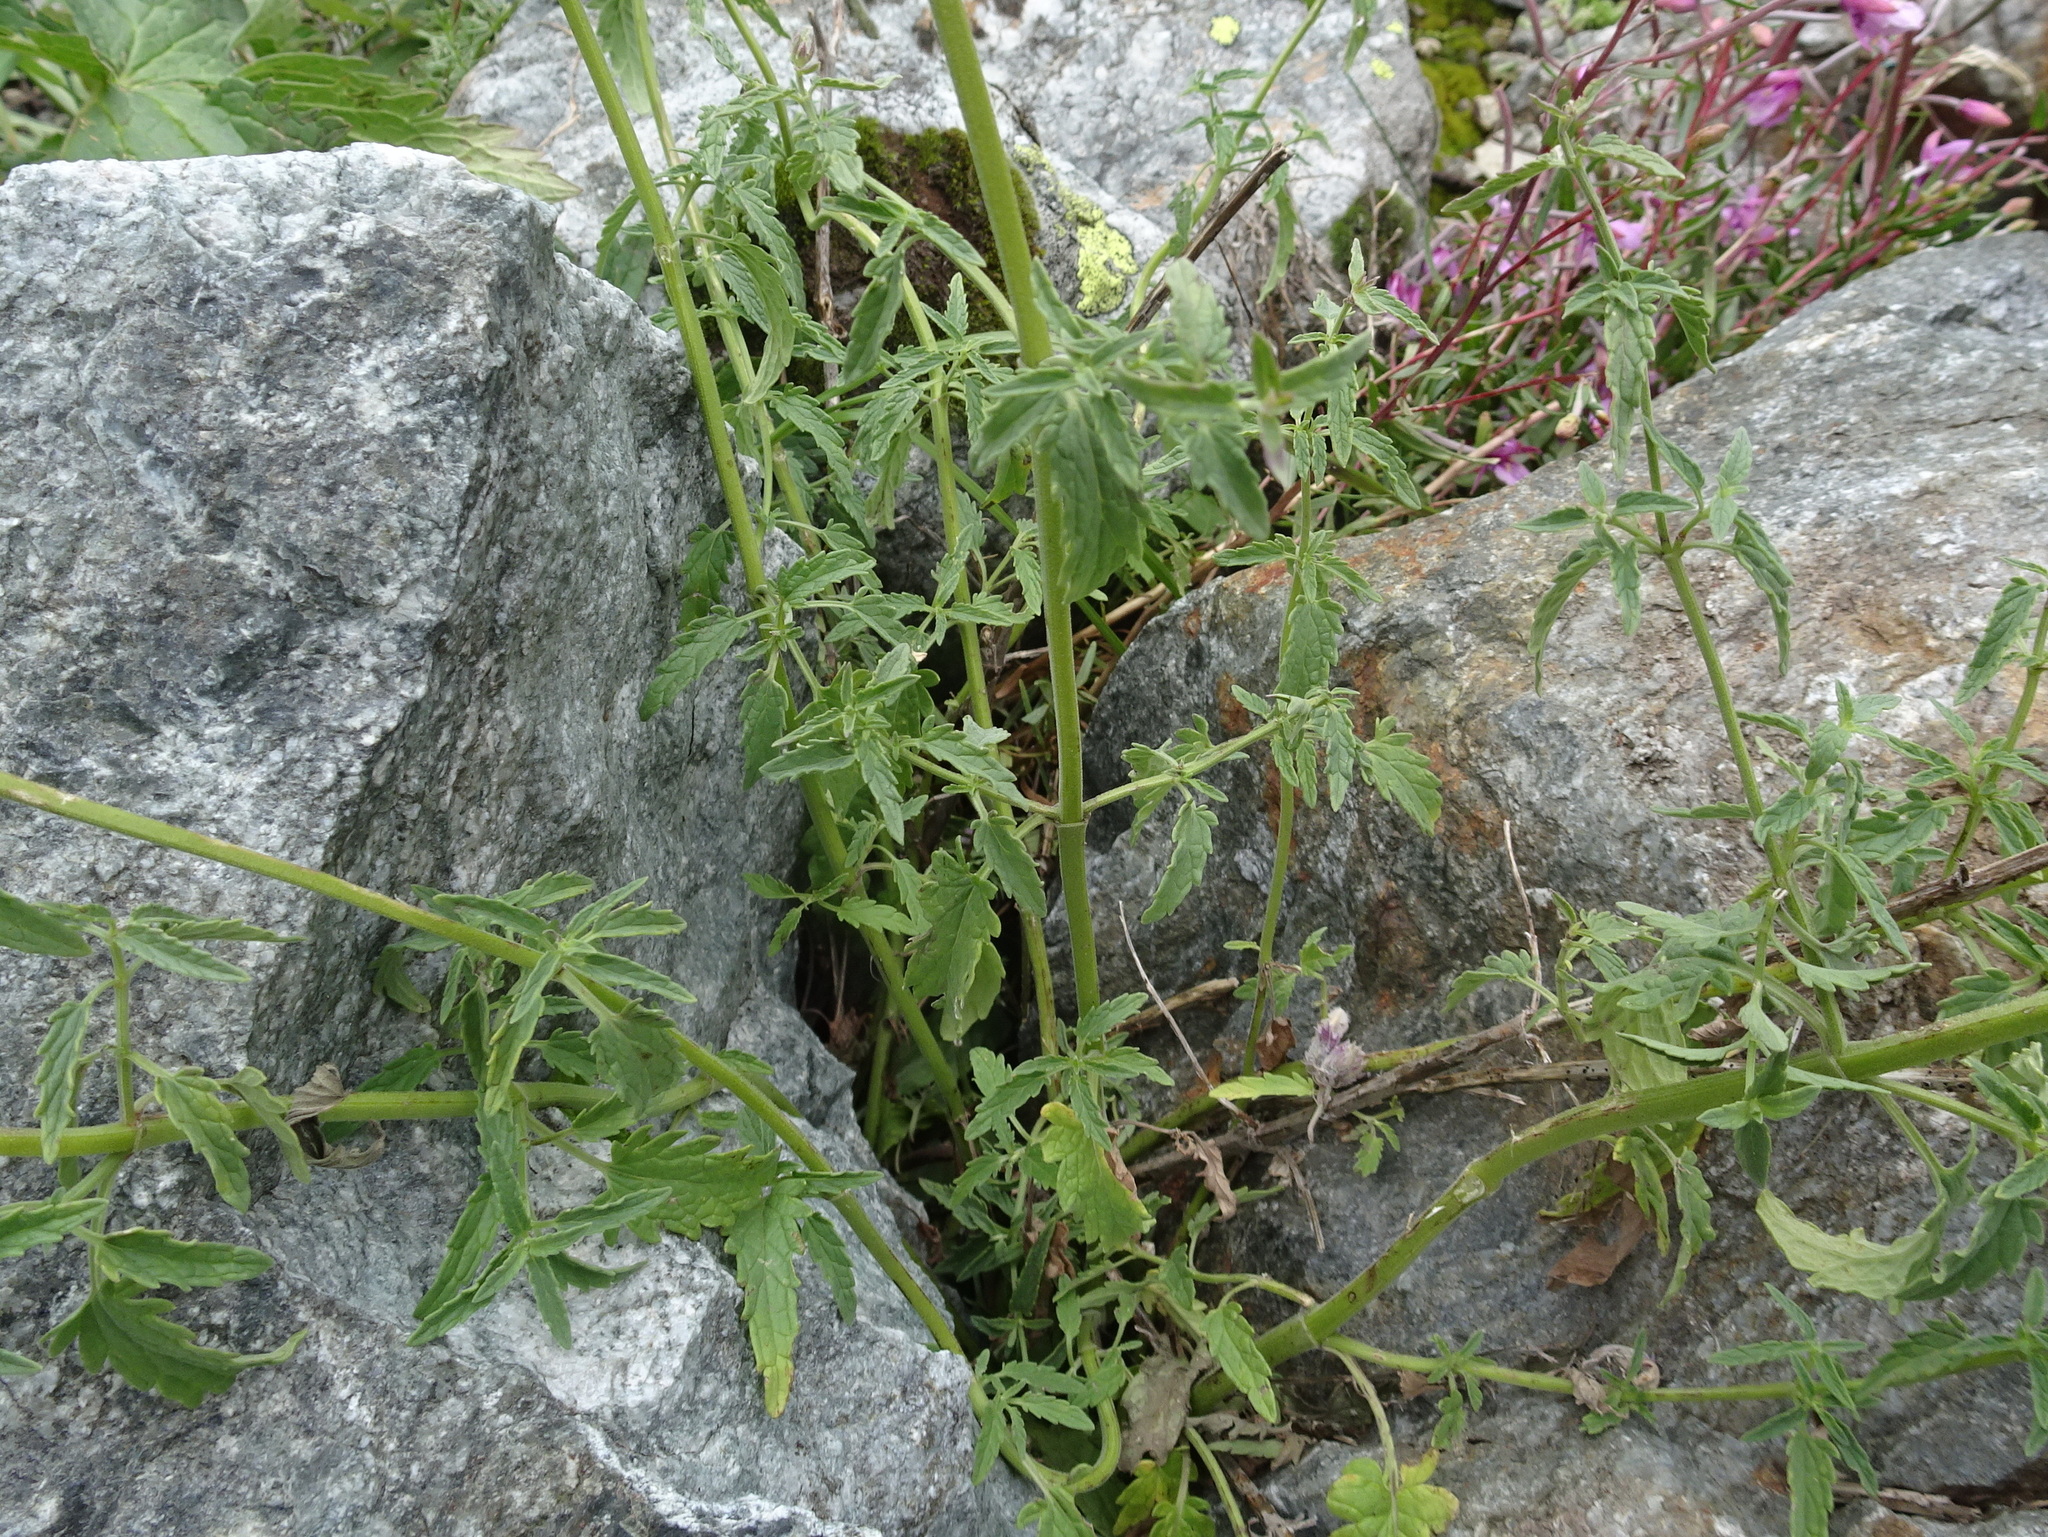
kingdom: Plantae
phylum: Tracheophyta
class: Magnoliopsida
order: Lamiales
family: Lamiaceae
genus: Nepeta
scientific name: Nepeta nepetella
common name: Lesser catmint
